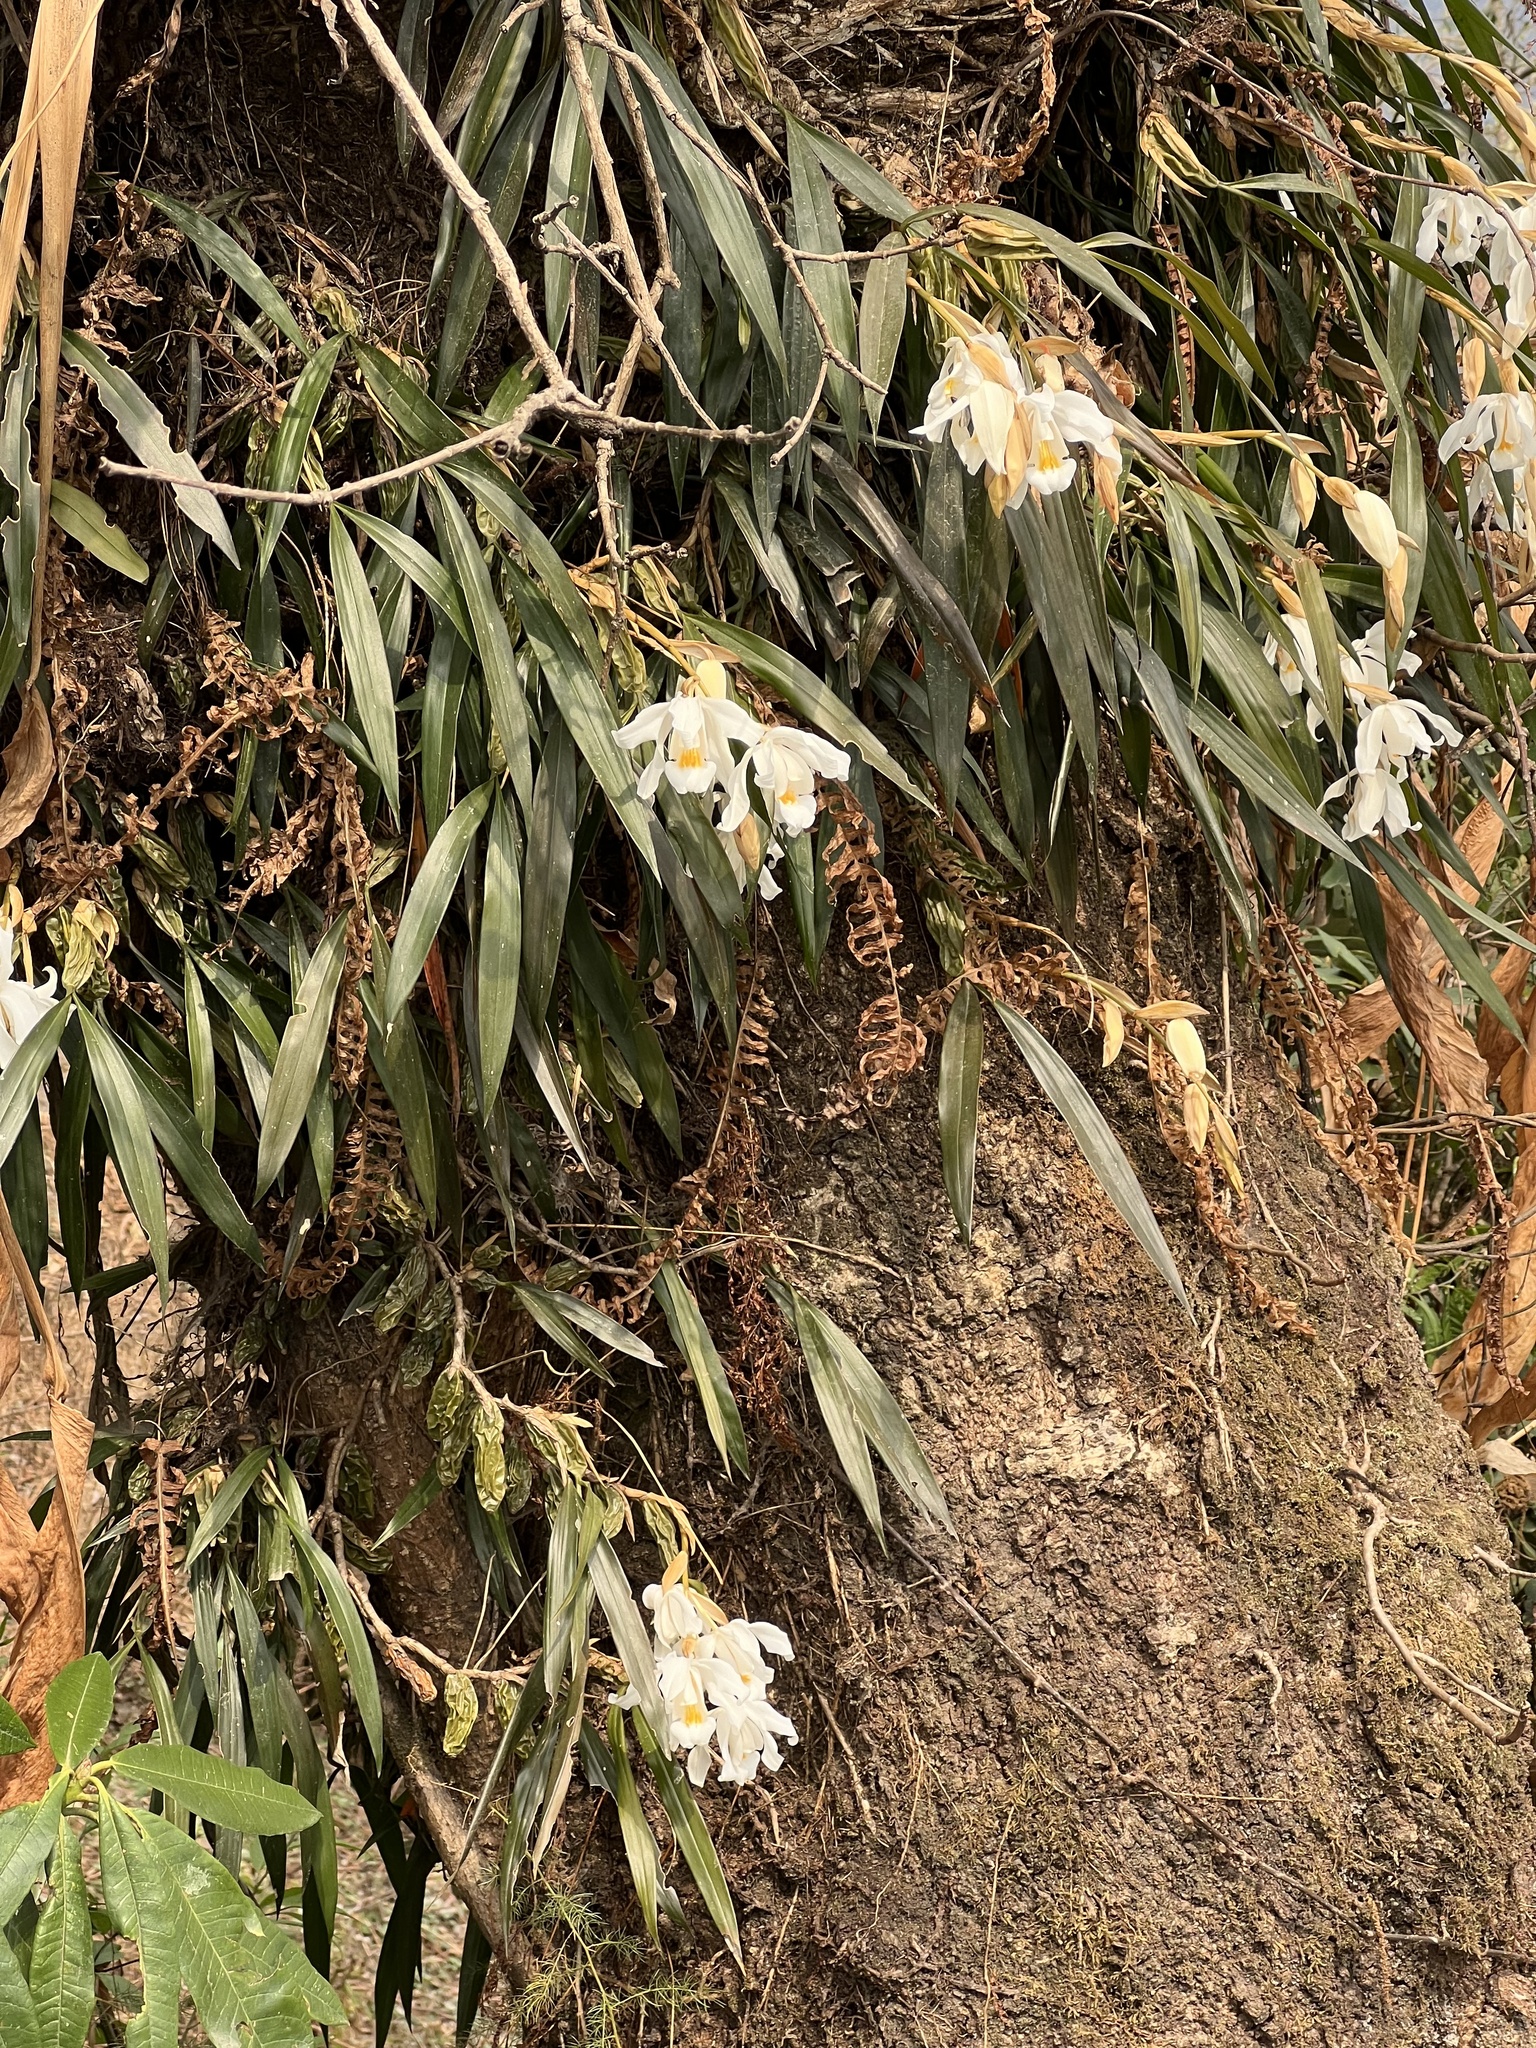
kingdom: Plantae
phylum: Tracheophyta
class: Liliopsida
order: Asparagales
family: Orchidaceae
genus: Coelogyne
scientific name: Coelogyne cristata
